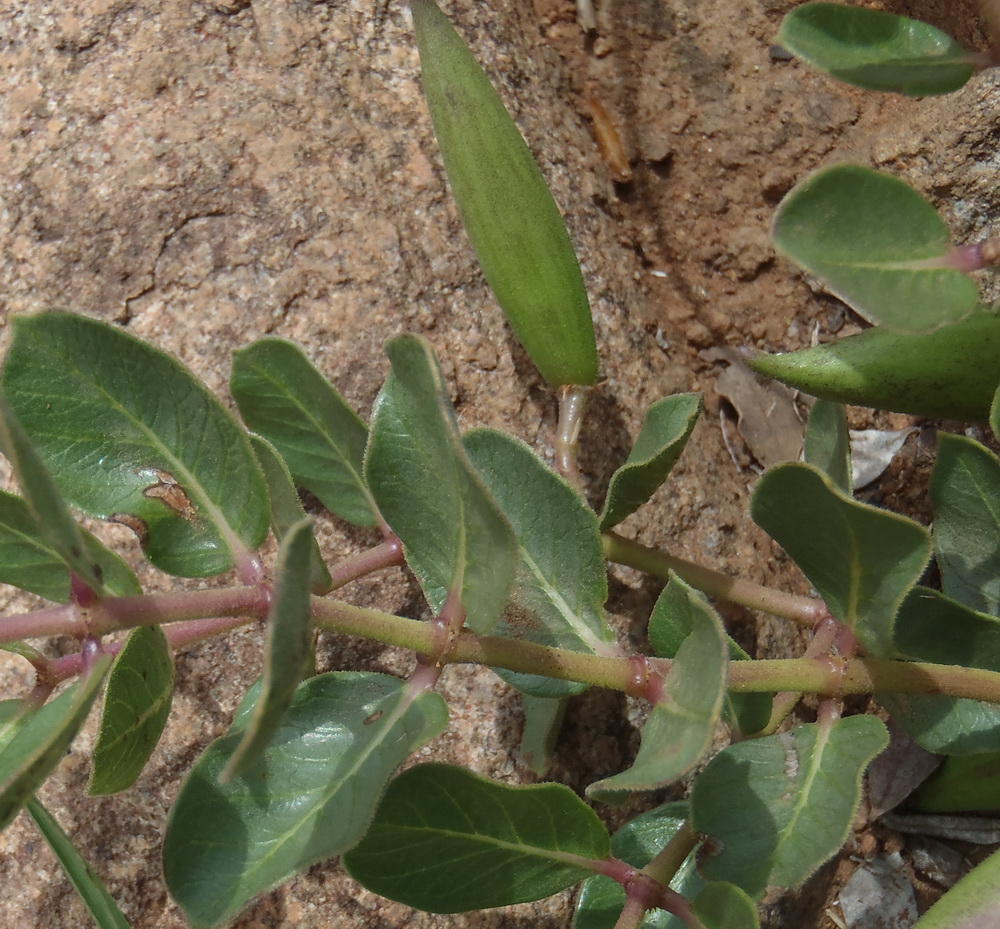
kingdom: Plantae
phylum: Tracheophyta
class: Magnoliopsida
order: Gentianales
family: Apocynaceae
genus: Raphionacme
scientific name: Raphionacme hirsuta
